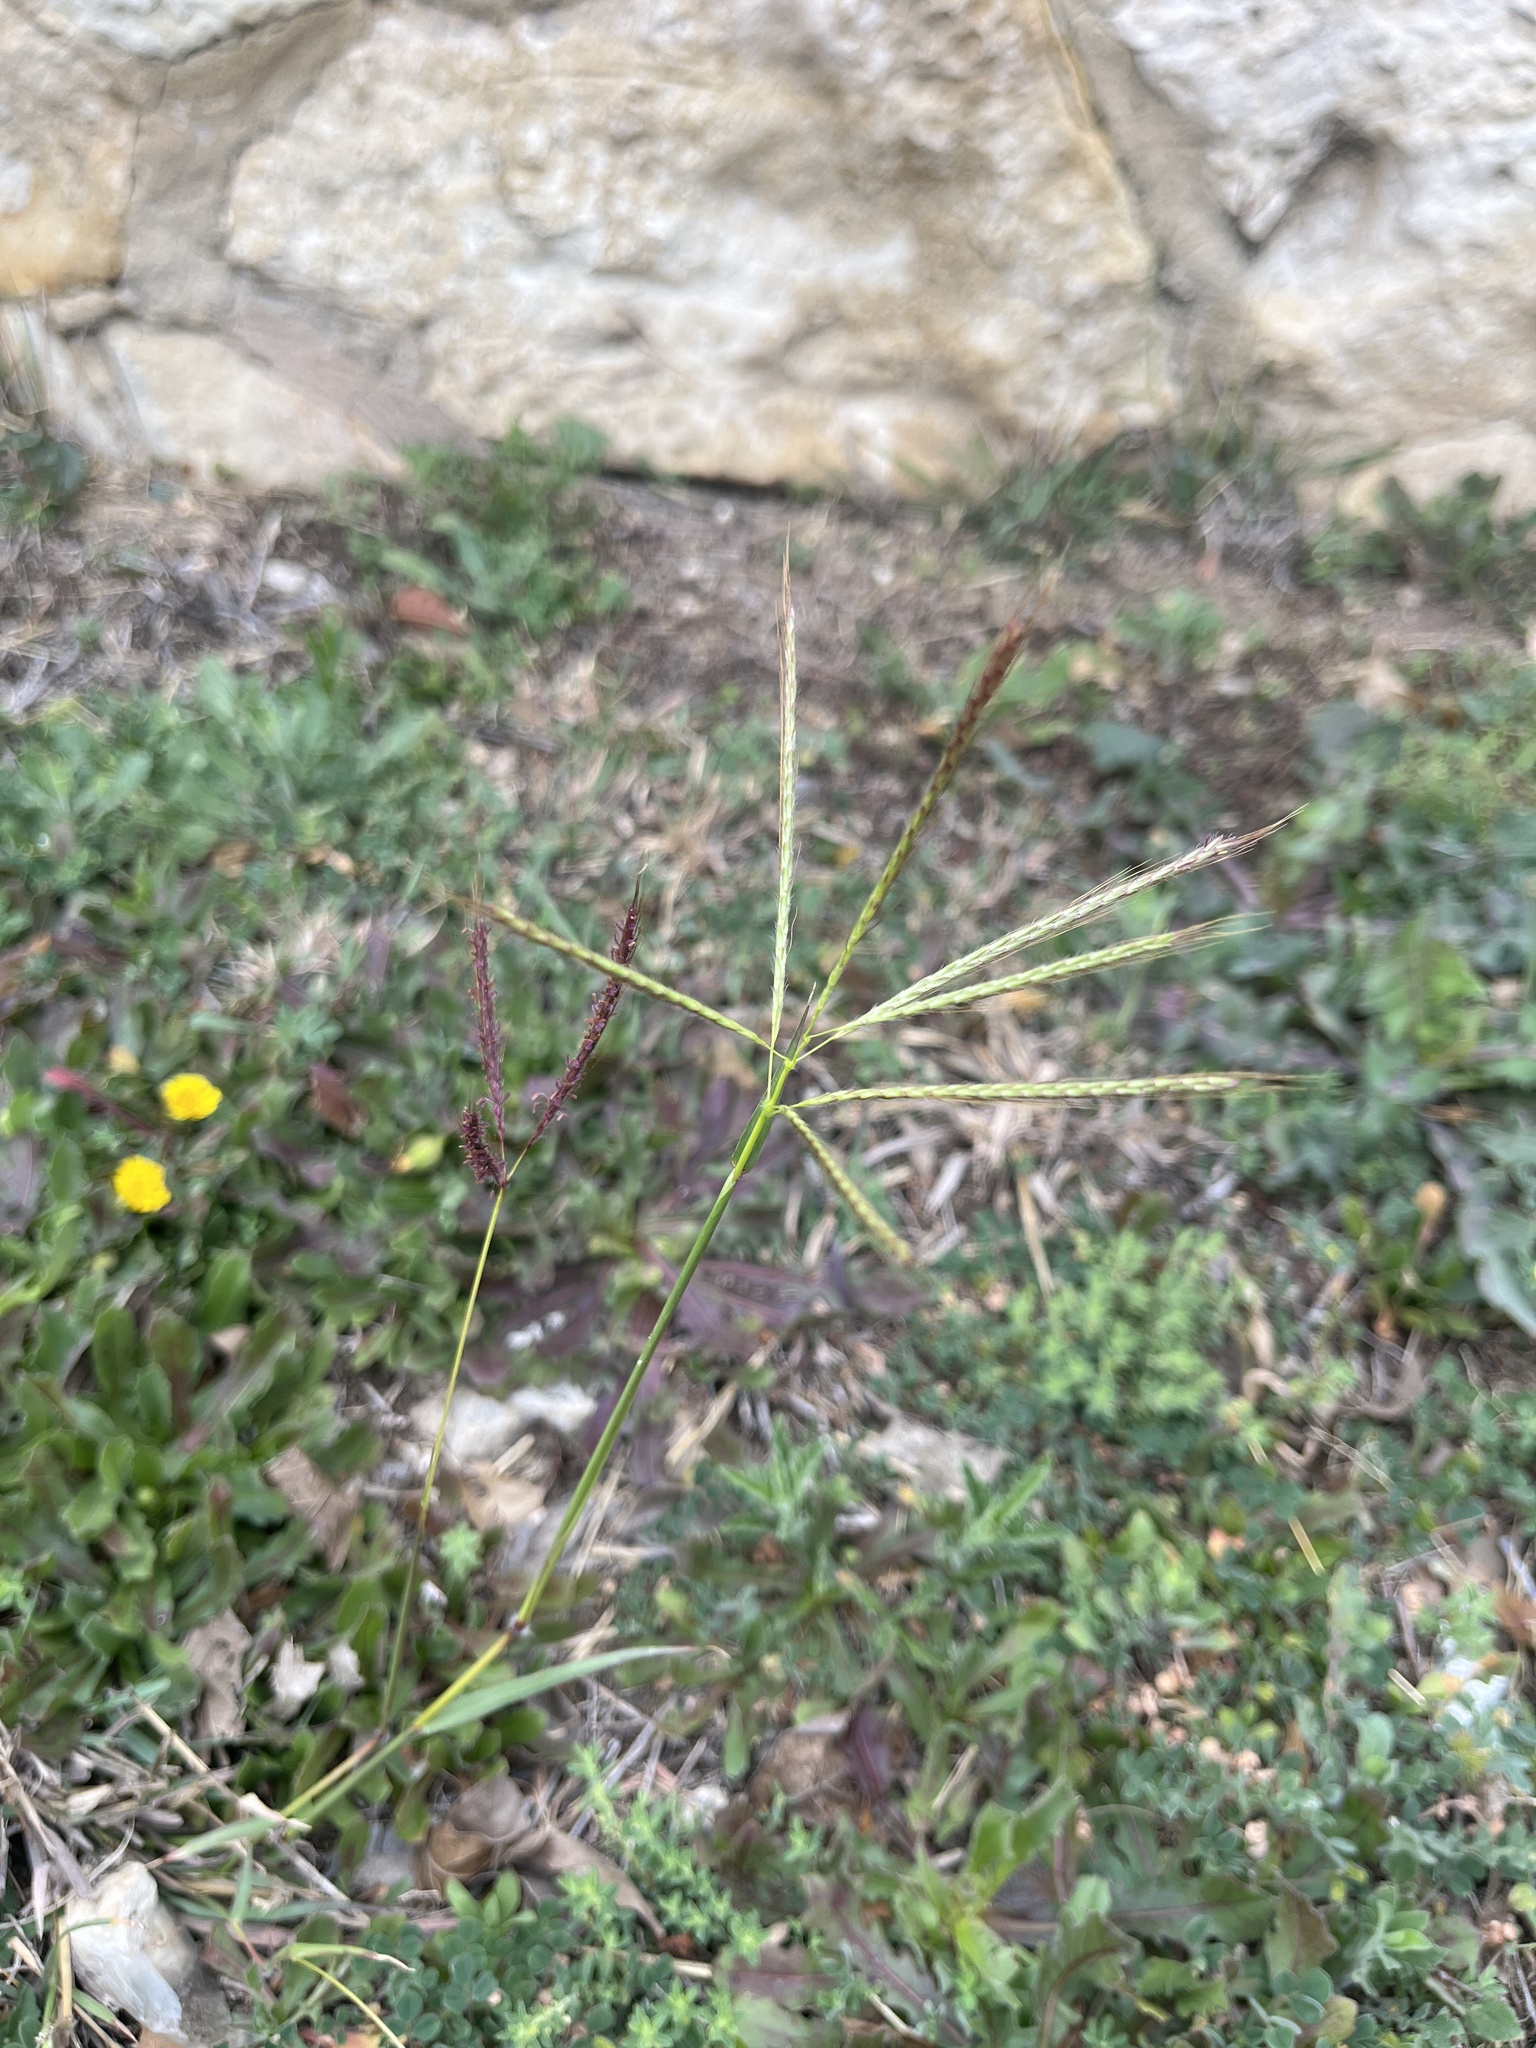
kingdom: Plantae
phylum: Tracheophyta
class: Liliopsida
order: Poales
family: Poaceae
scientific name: Poaceae
